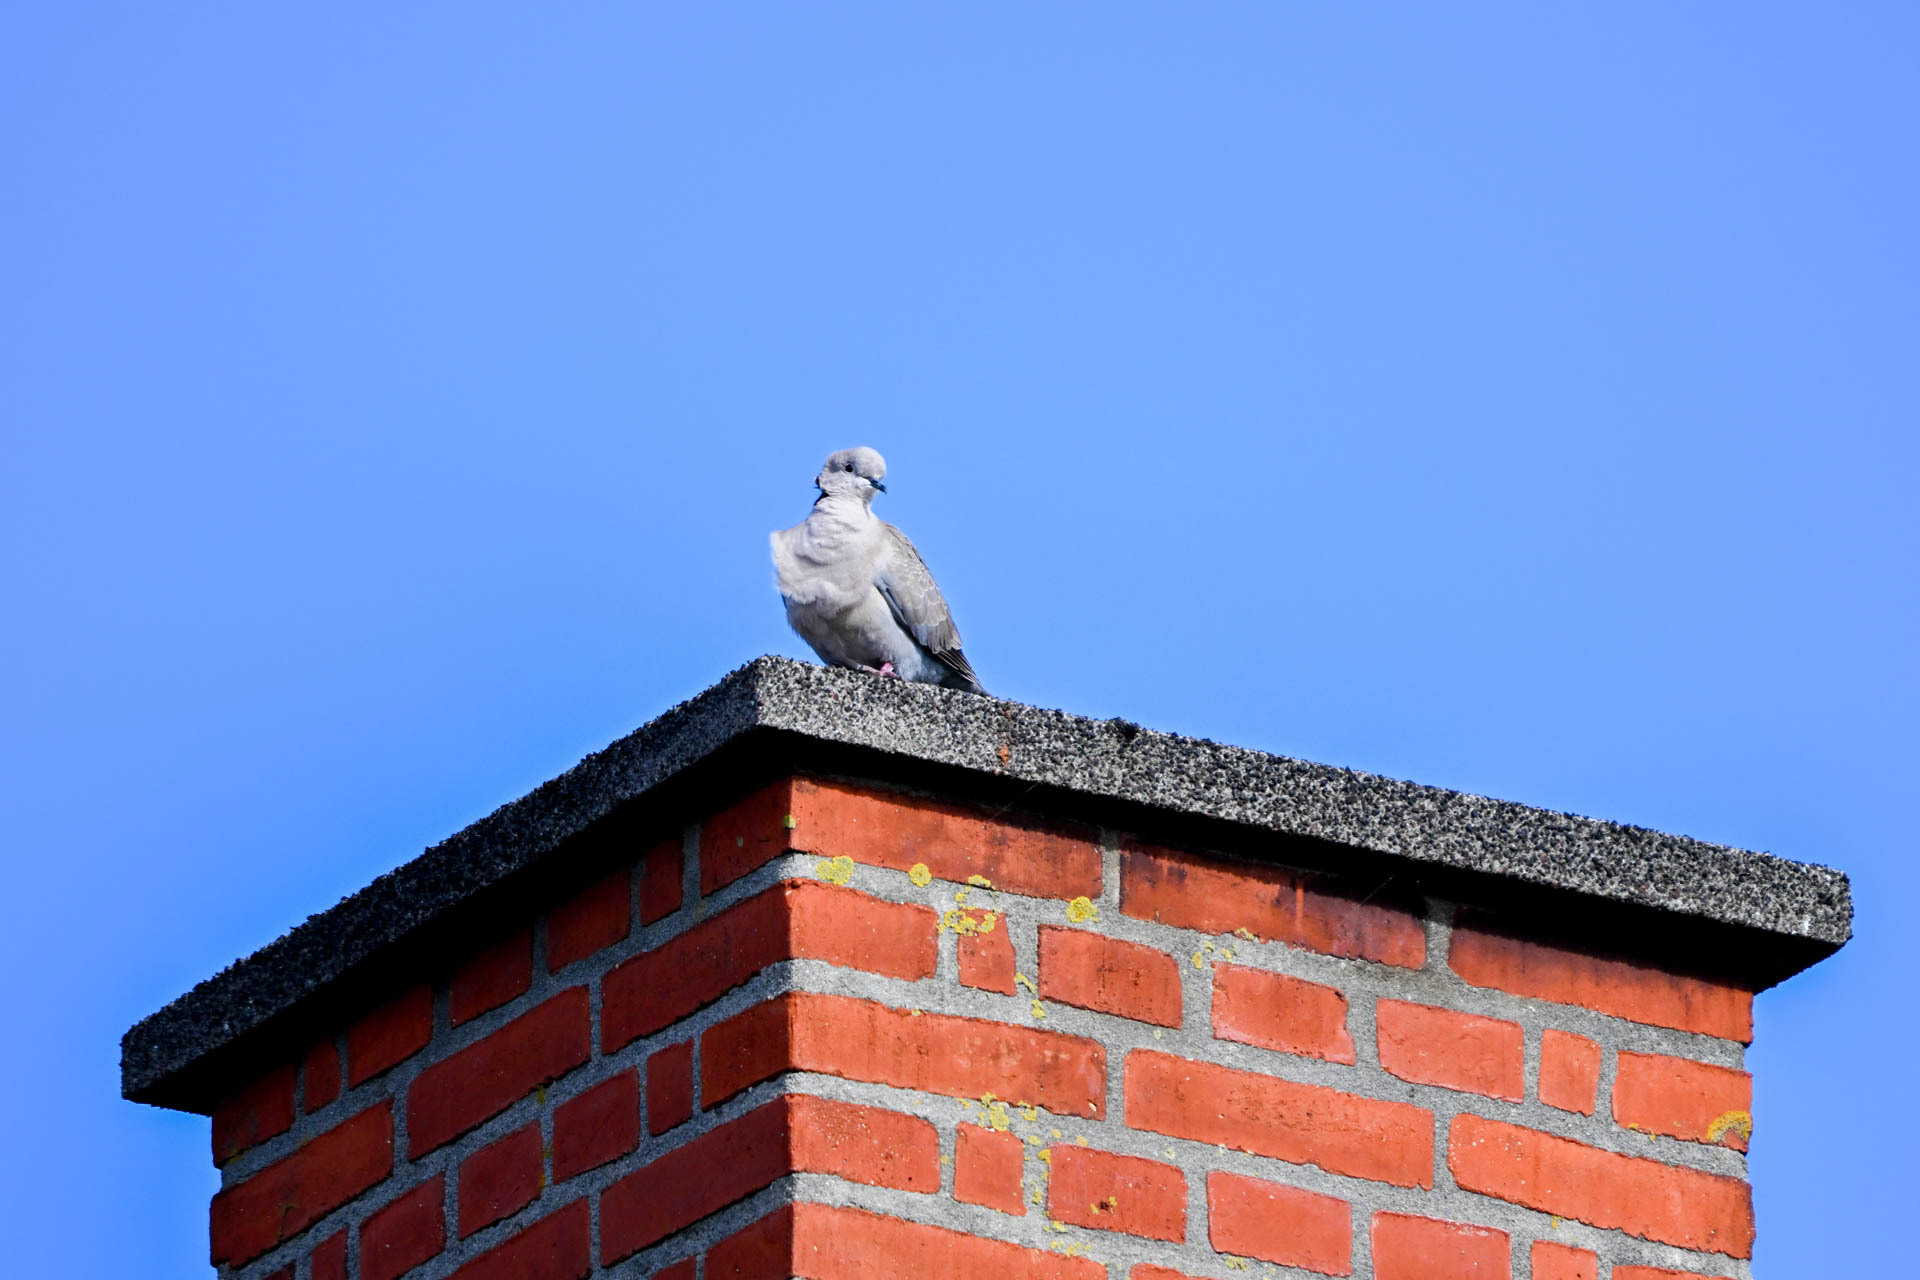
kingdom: Animalia
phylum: Chordata
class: Aves
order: Columbiformes
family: Columbidae
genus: Streptopelia
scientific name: Streptopelia decaocto
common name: Eurasian collared dove
